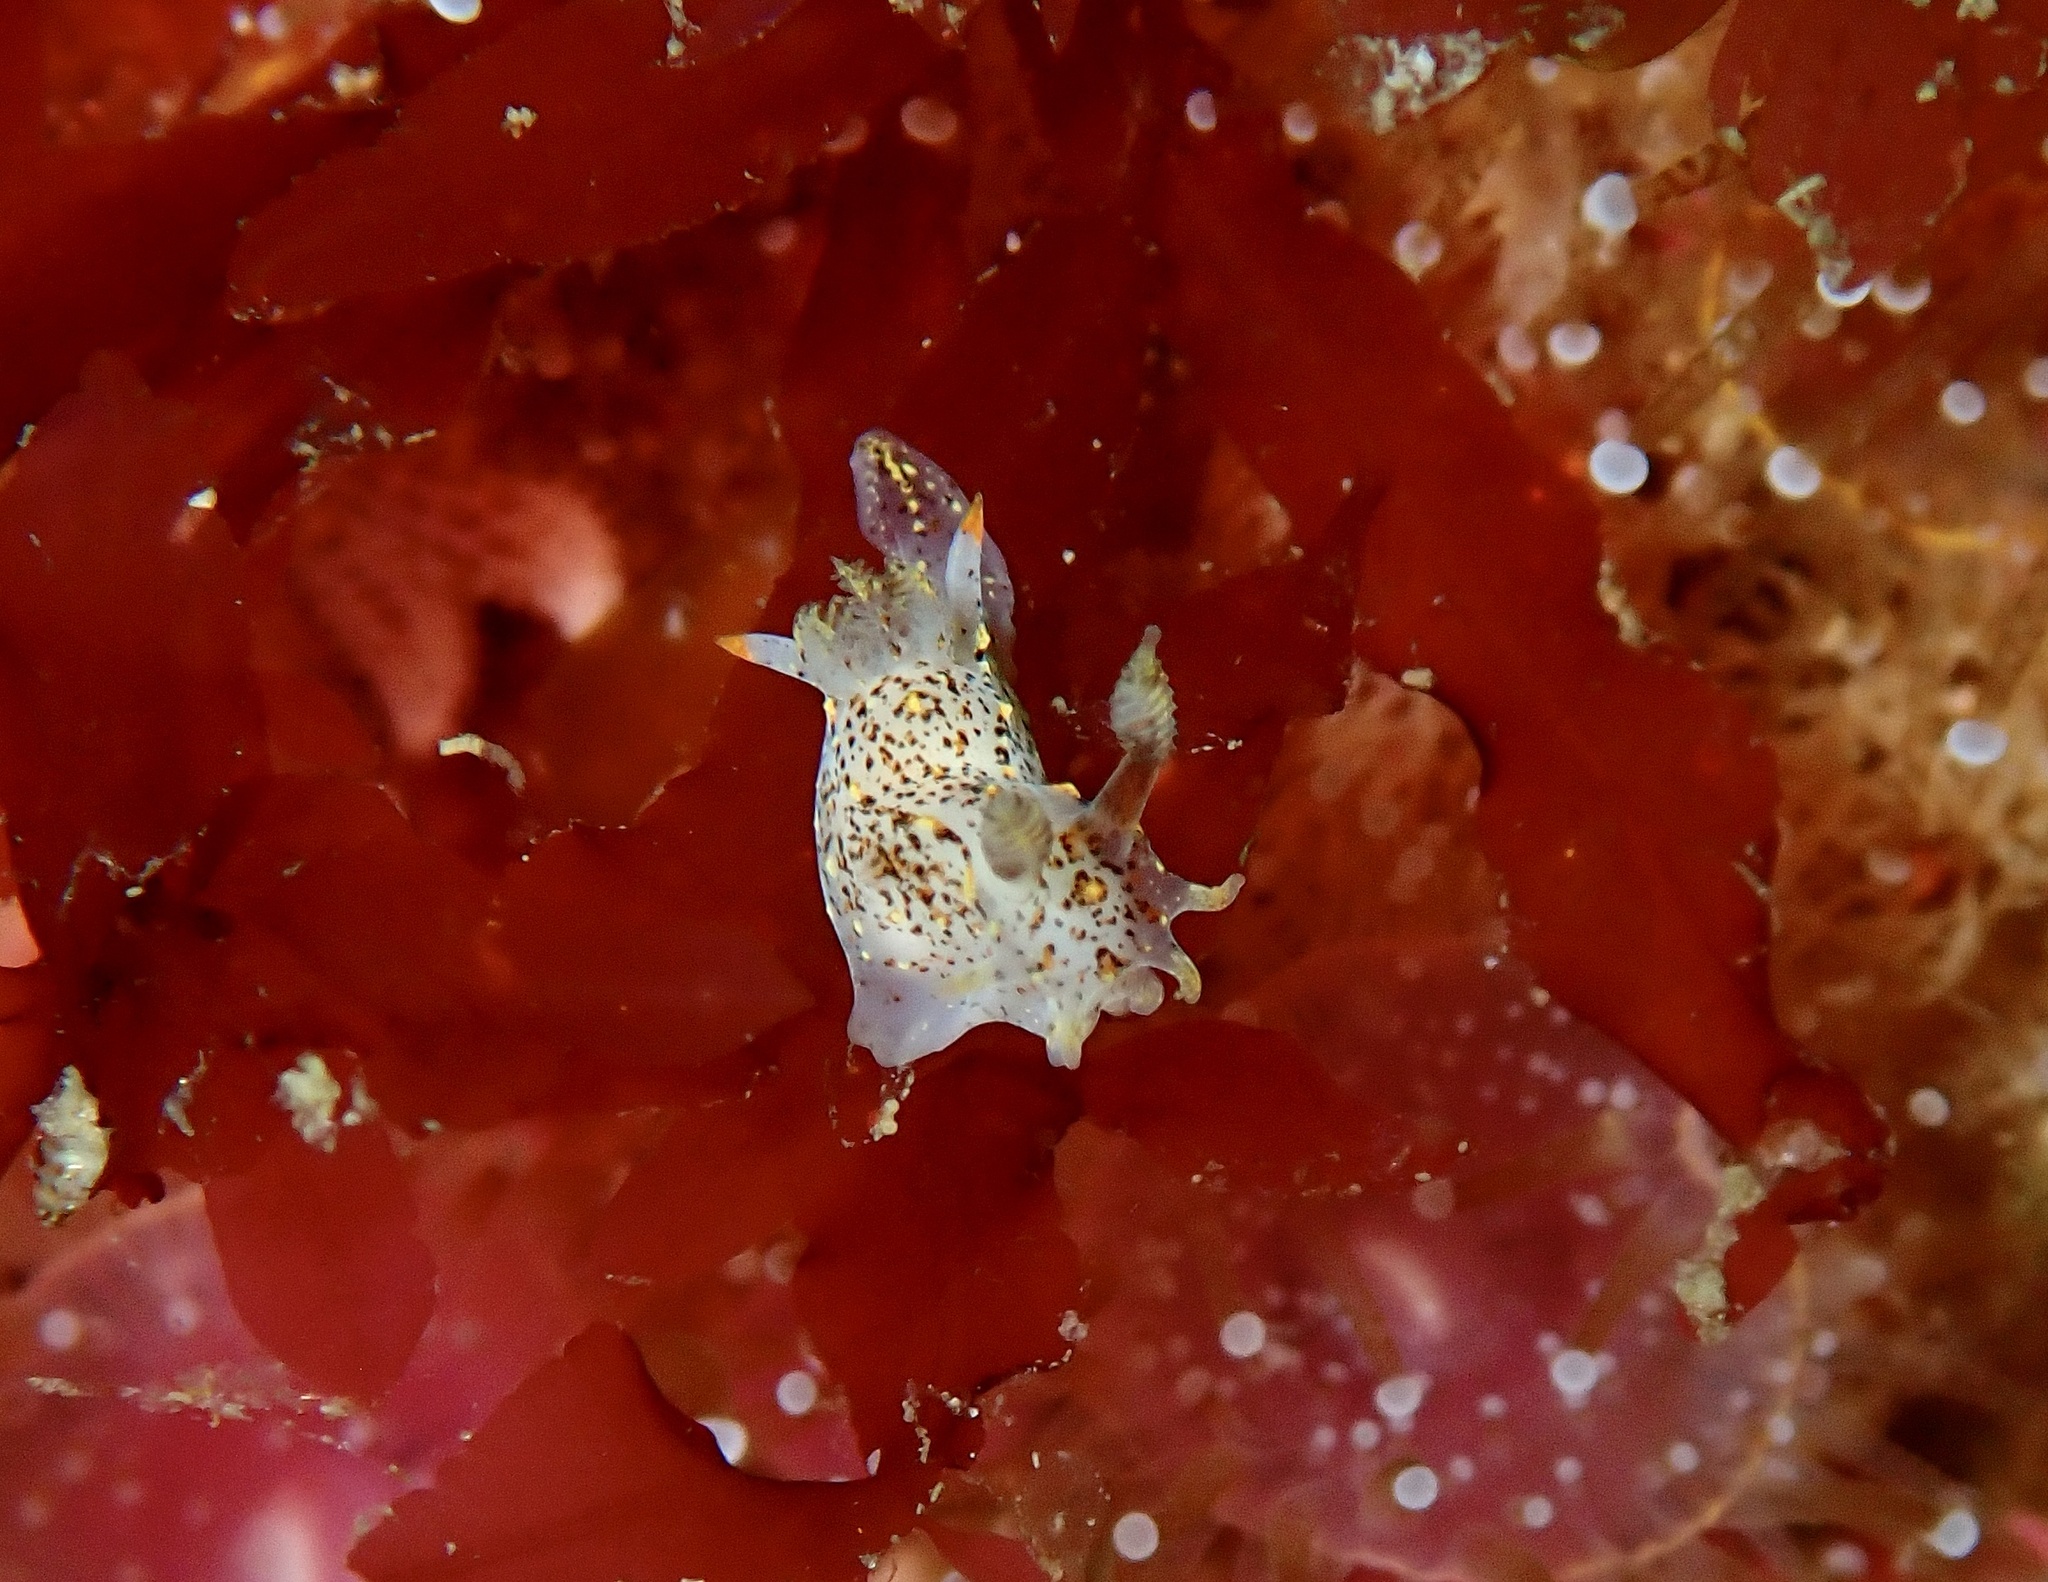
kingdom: Animalia
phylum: Mollusca
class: Gastropoda
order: Nudibranchia
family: Polyceridae
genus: Polycera
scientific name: Polycera norvegica
